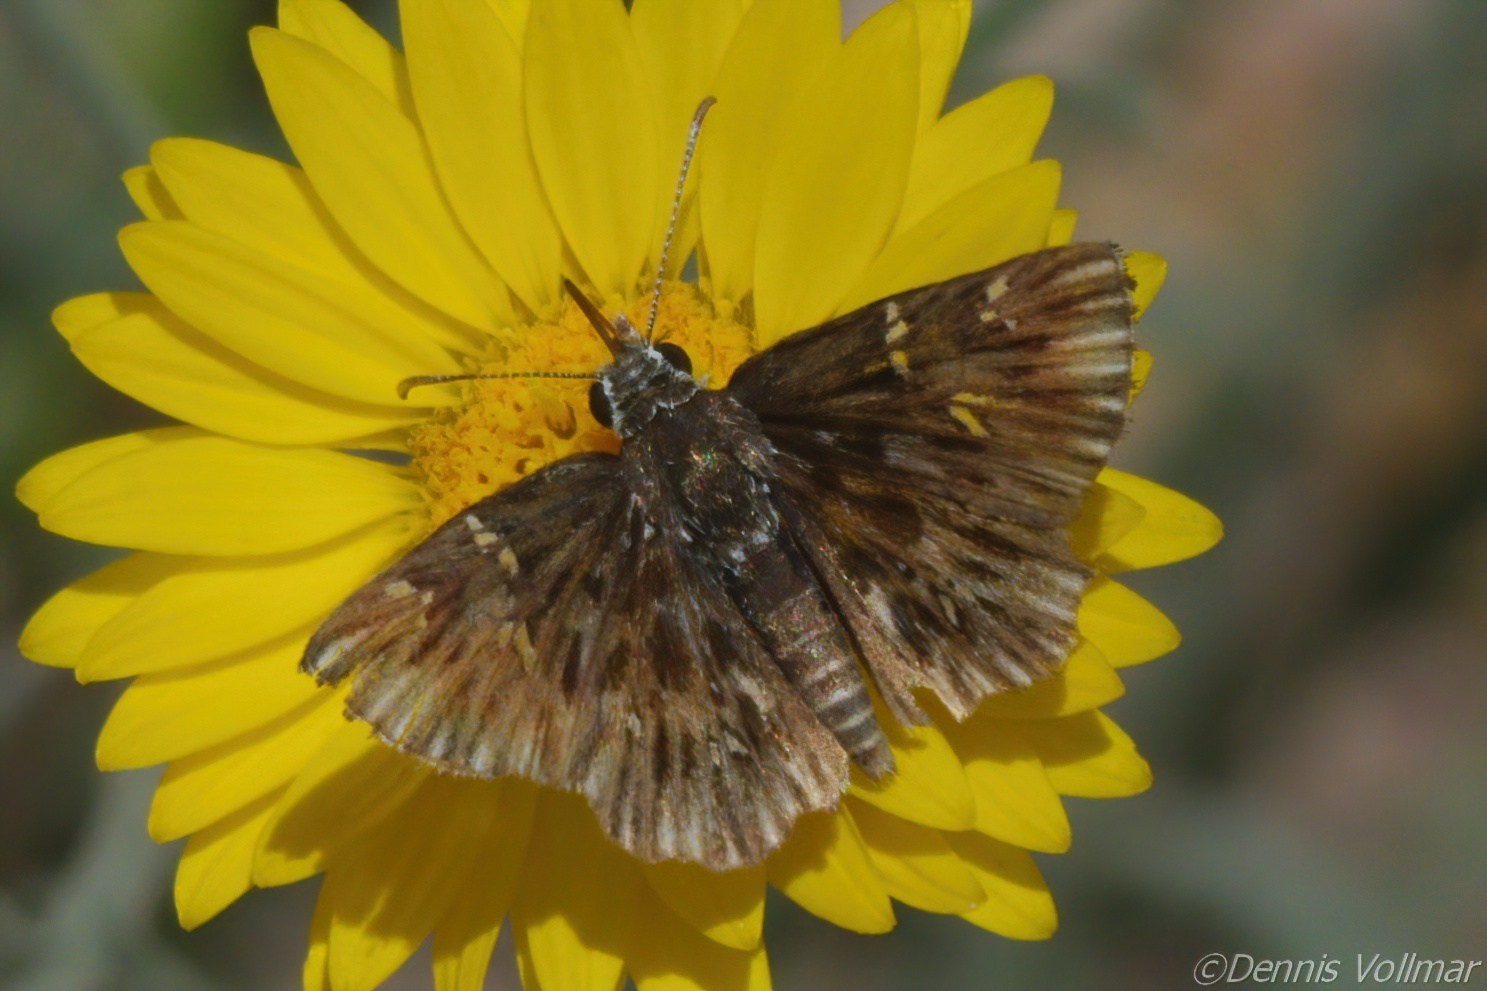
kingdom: Animalia
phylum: Arthropoda
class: Insecta
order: Lepidoptera
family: Hesperiidae
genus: Celotes
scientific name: Celotes nessus
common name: Common streaky-skipper
